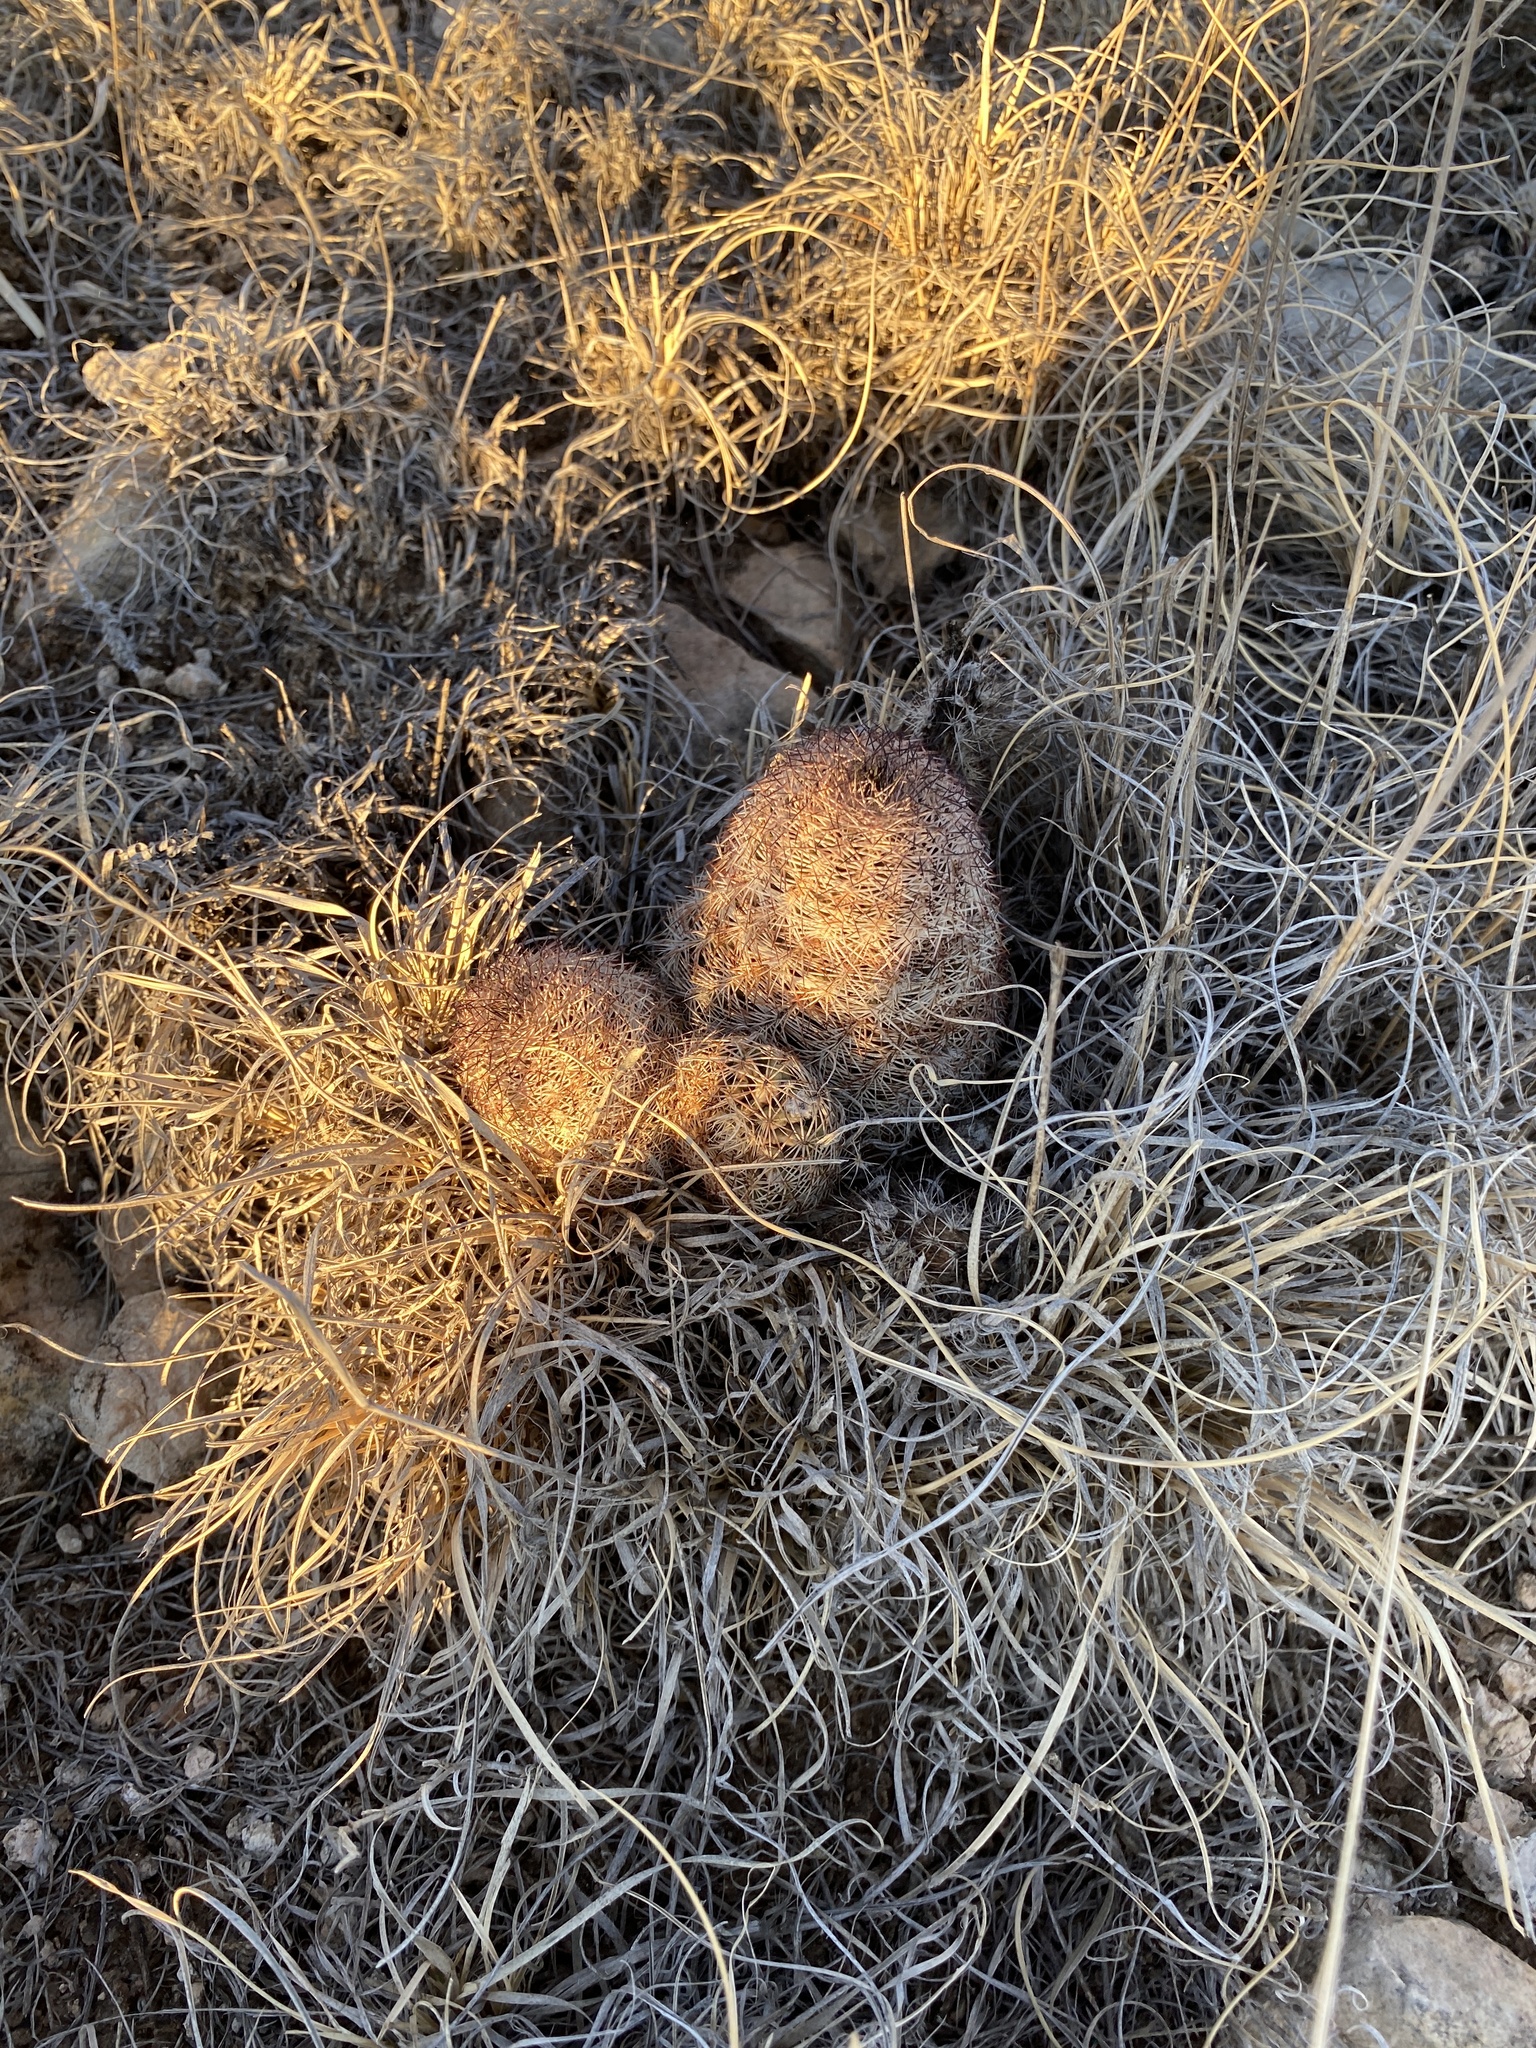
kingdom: Plantae
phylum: Tracheophyta
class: Magnoliopsida
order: Caryophyllales
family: Cactaceae
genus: Echinocereus
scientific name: Echinocereus reichenbachii
